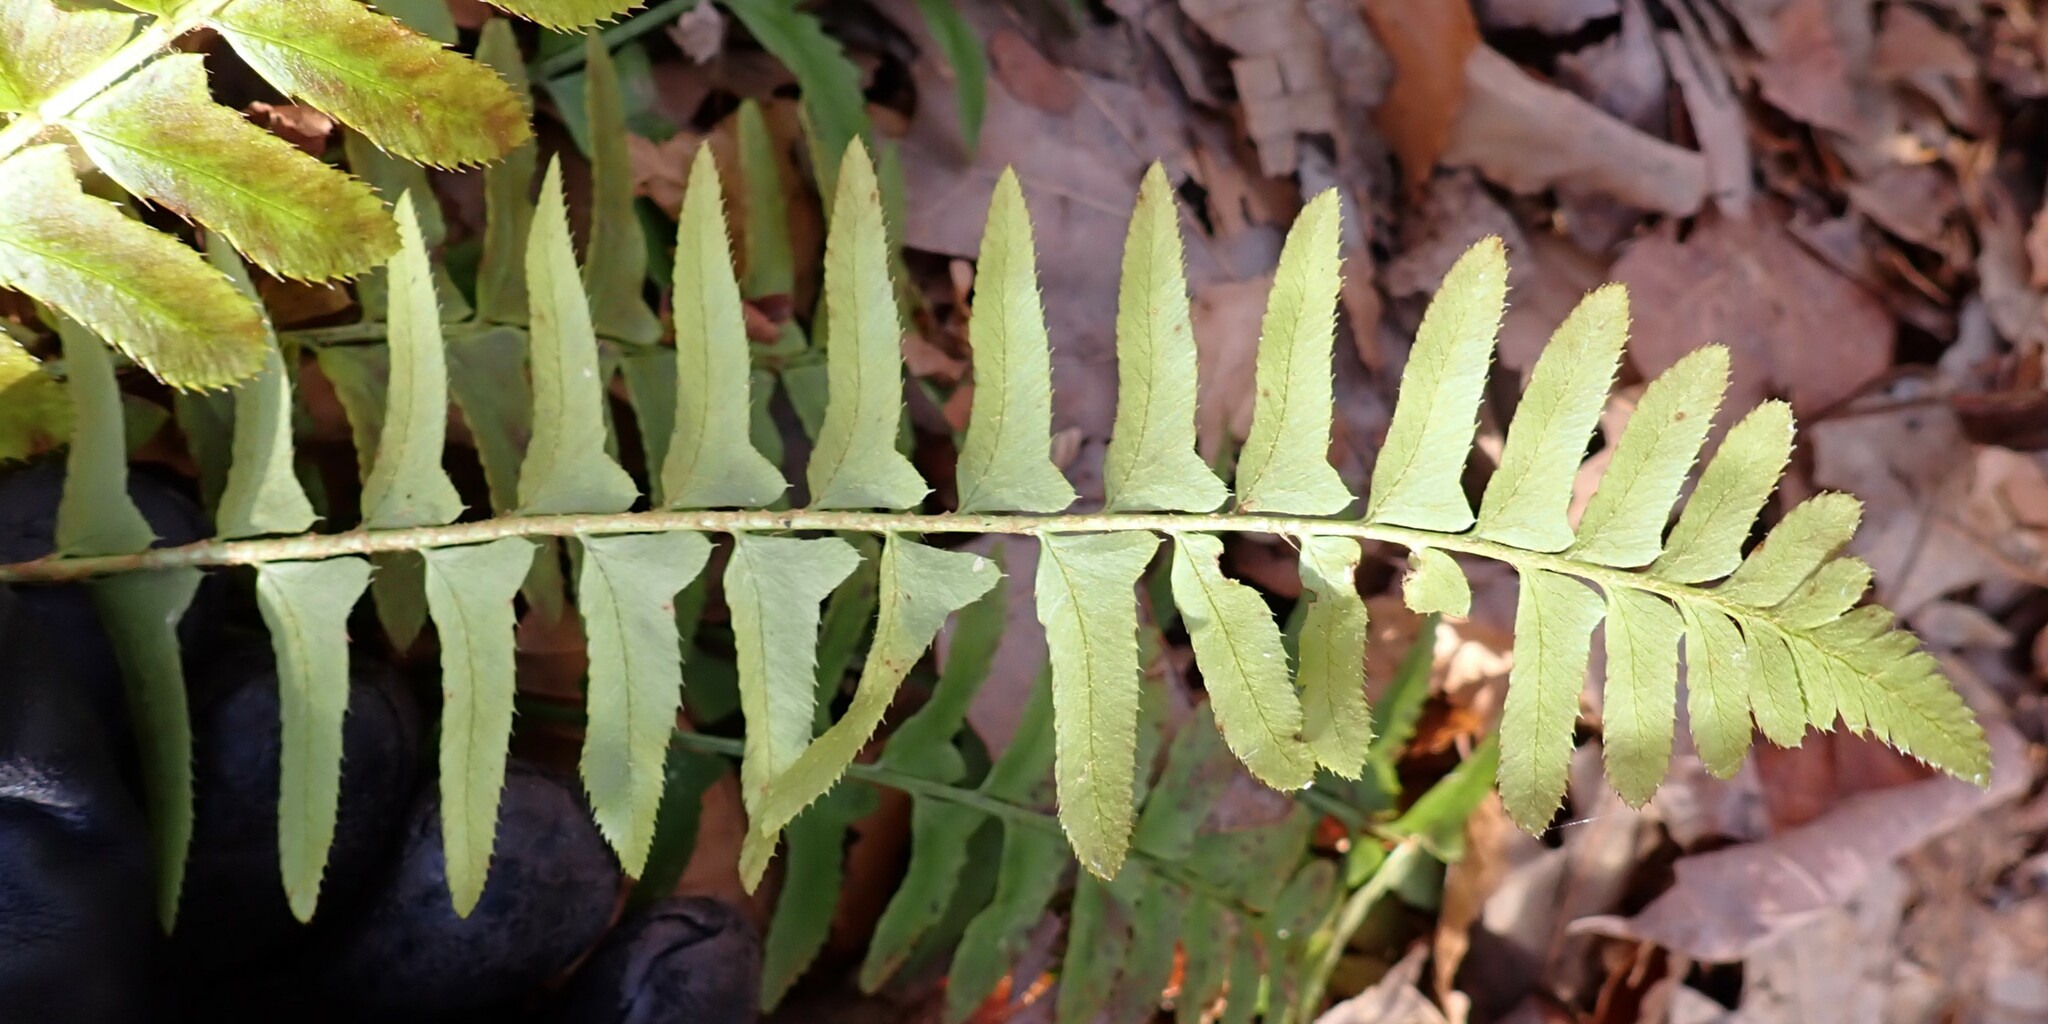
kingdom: Plantae
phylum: Tracheophyta
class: Polypodiopsida
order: Polypodiales
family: Dryopteridaceae
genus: Polystichum
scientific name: Polystichum acrostichoides
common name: Christmas fern
